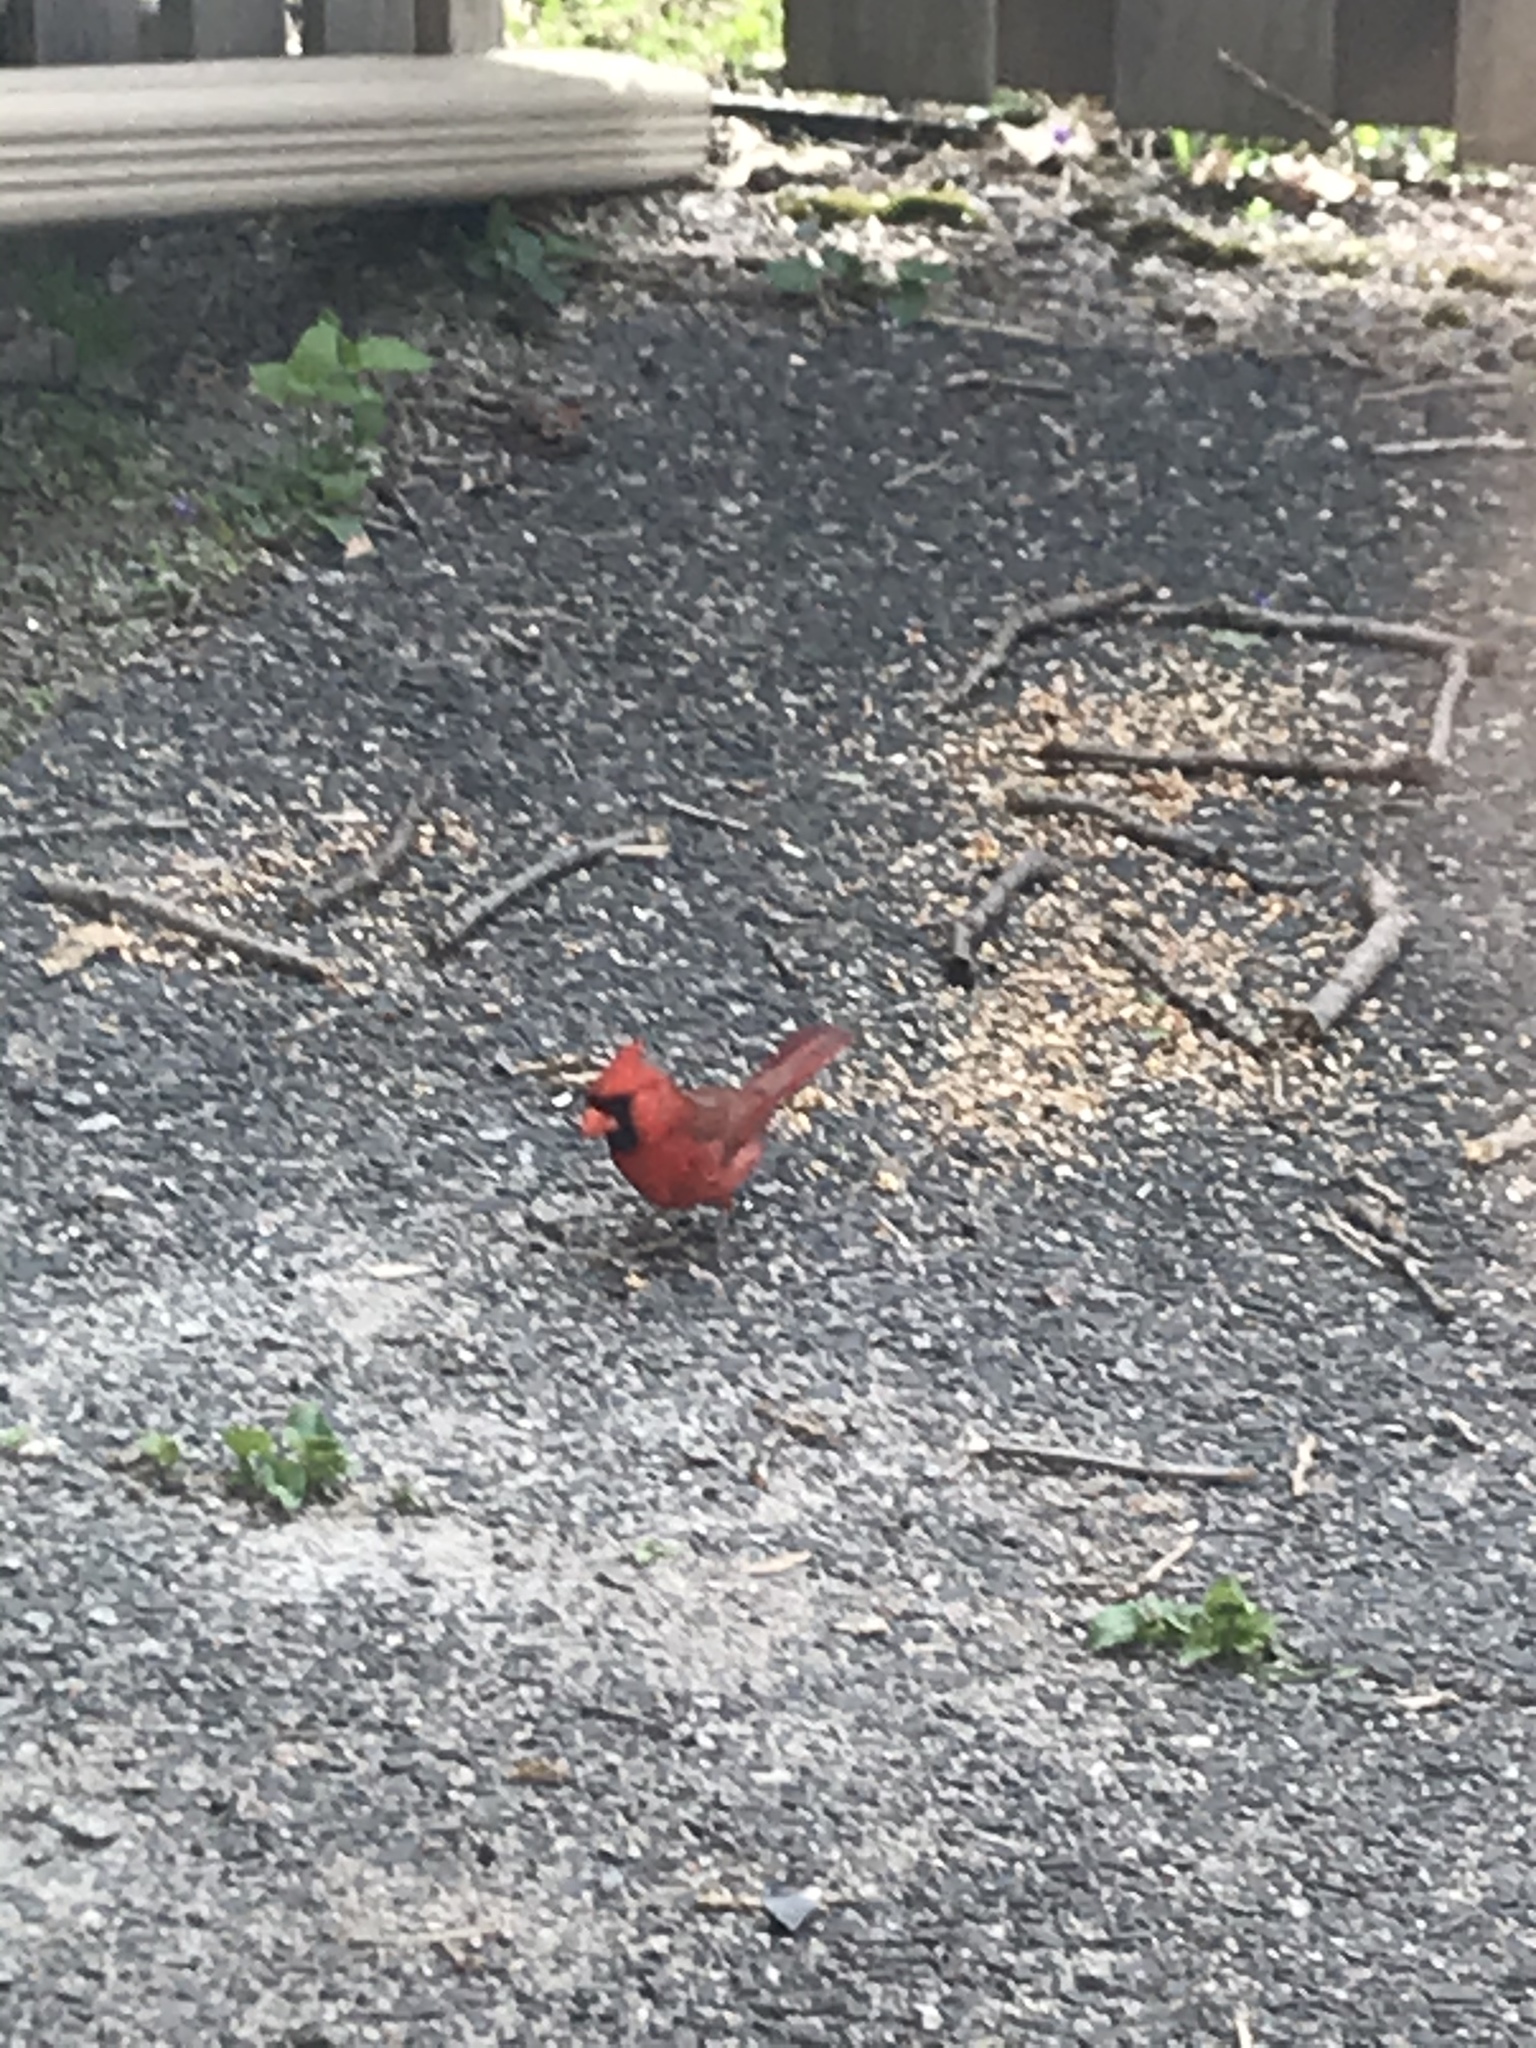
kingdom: Animalia
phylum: Chordata
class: Aves
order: Passeriformes
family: Cardinalidae
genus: Cardinalis
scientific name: Cardinalis cardinalis
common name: Northern cardinal
